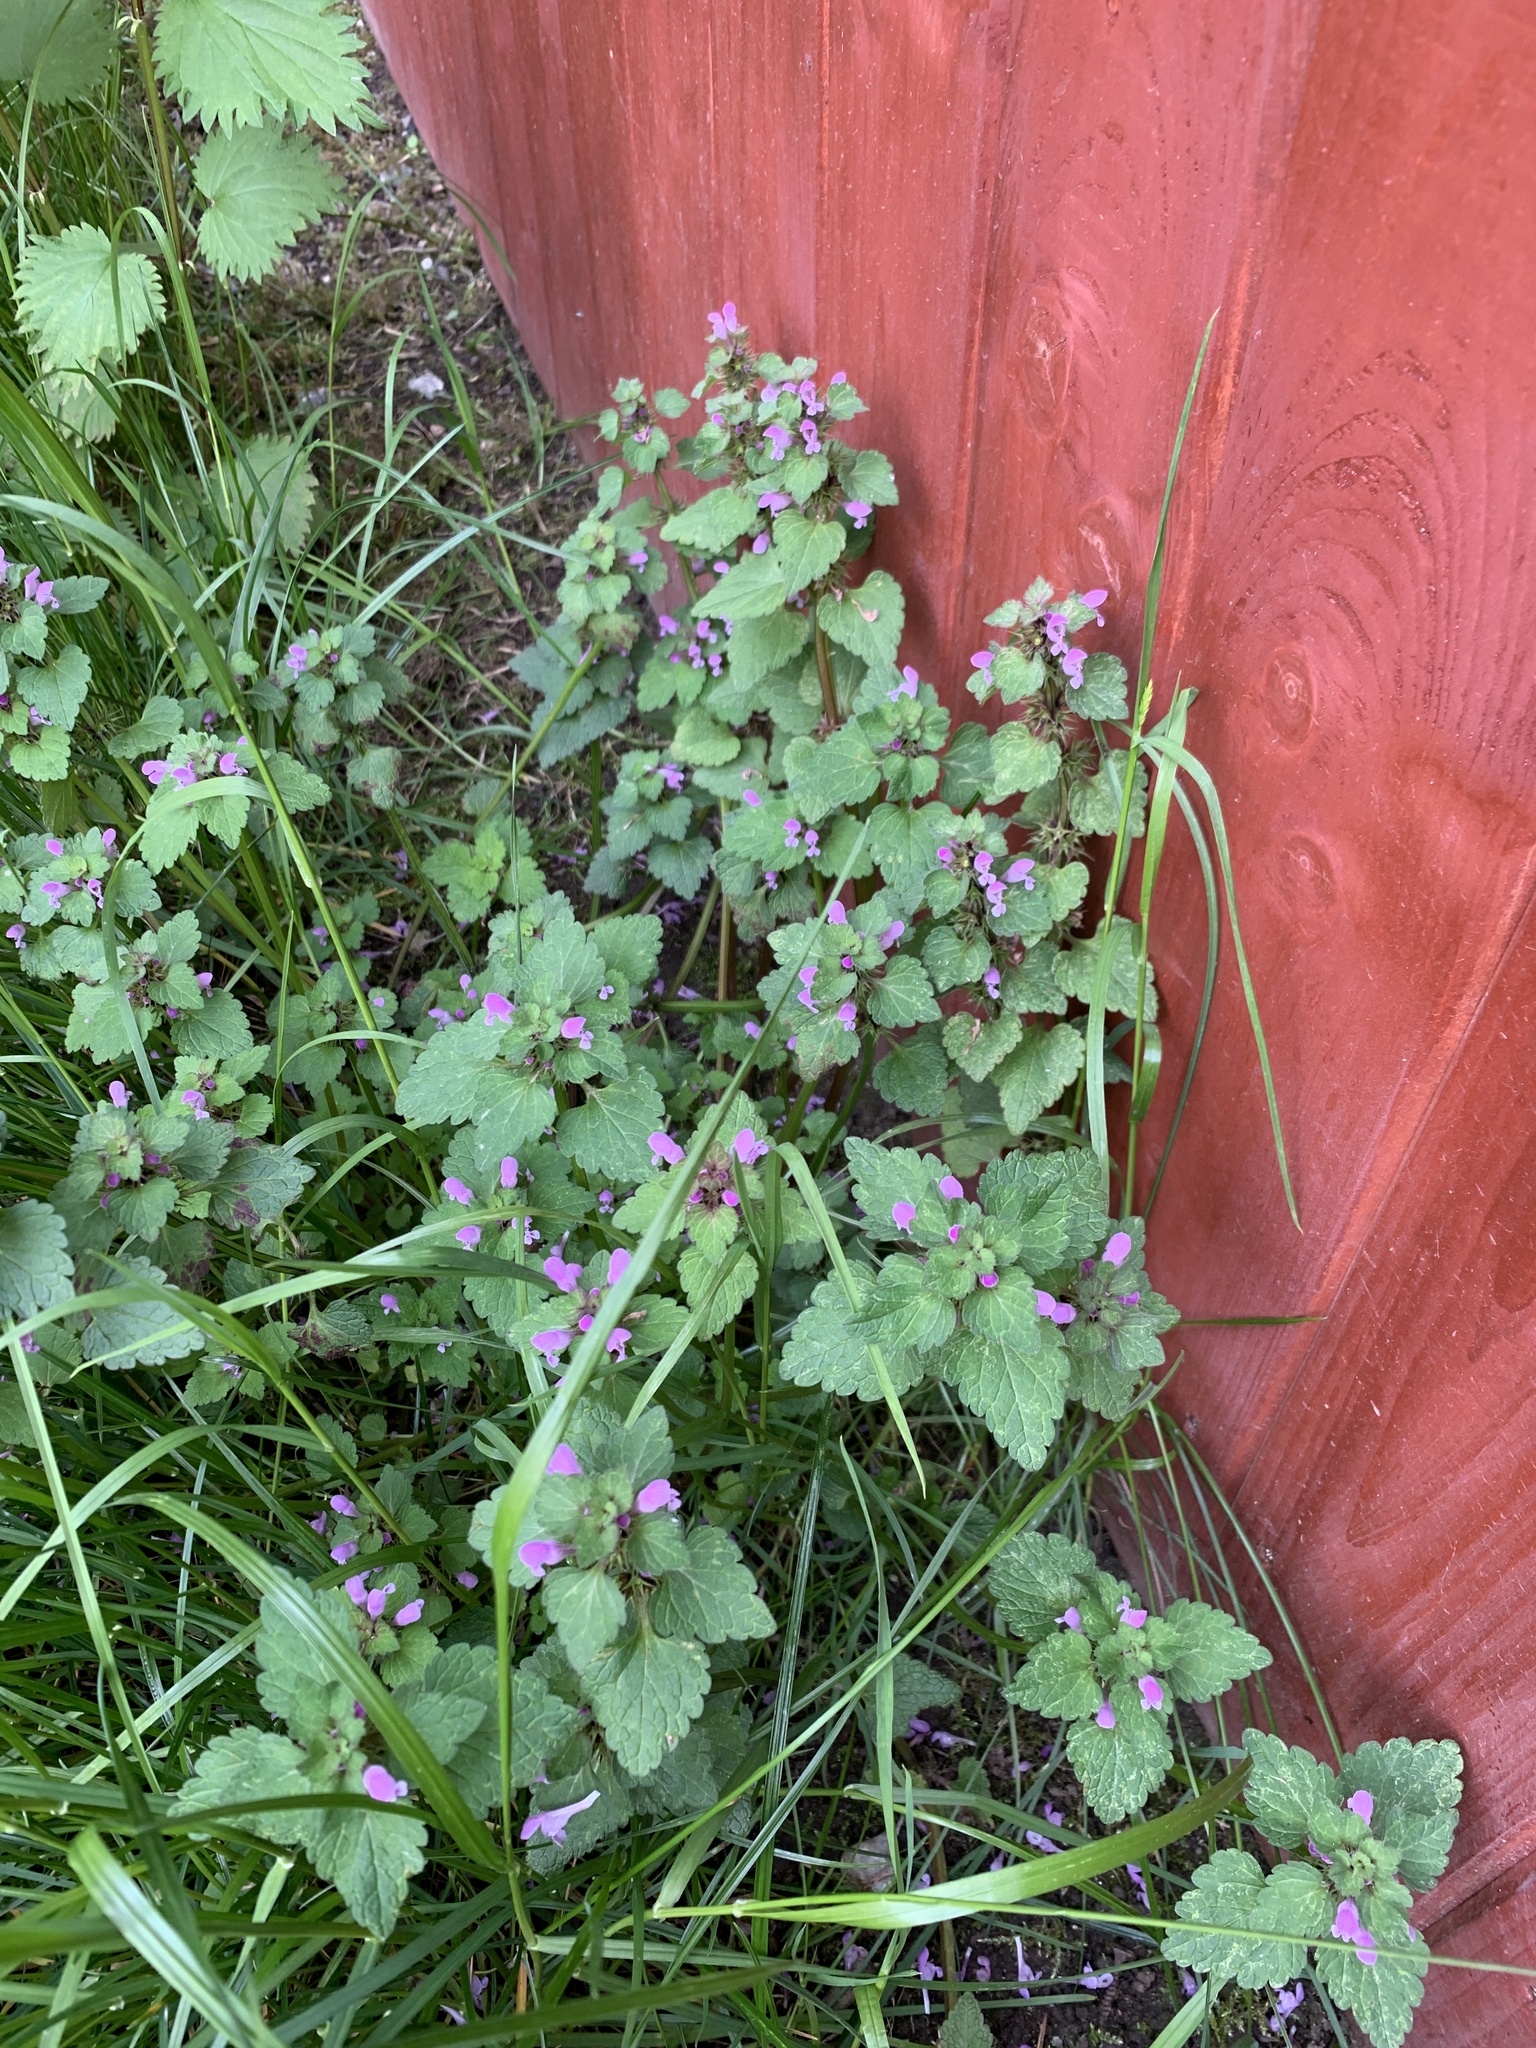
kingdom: Plantae
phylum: Tracheophyta
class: Magnoliopsida
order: Lamiales
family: Lamiaceae
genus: Lamium
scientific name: Lamium purpureum
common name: Red dead-nettle
